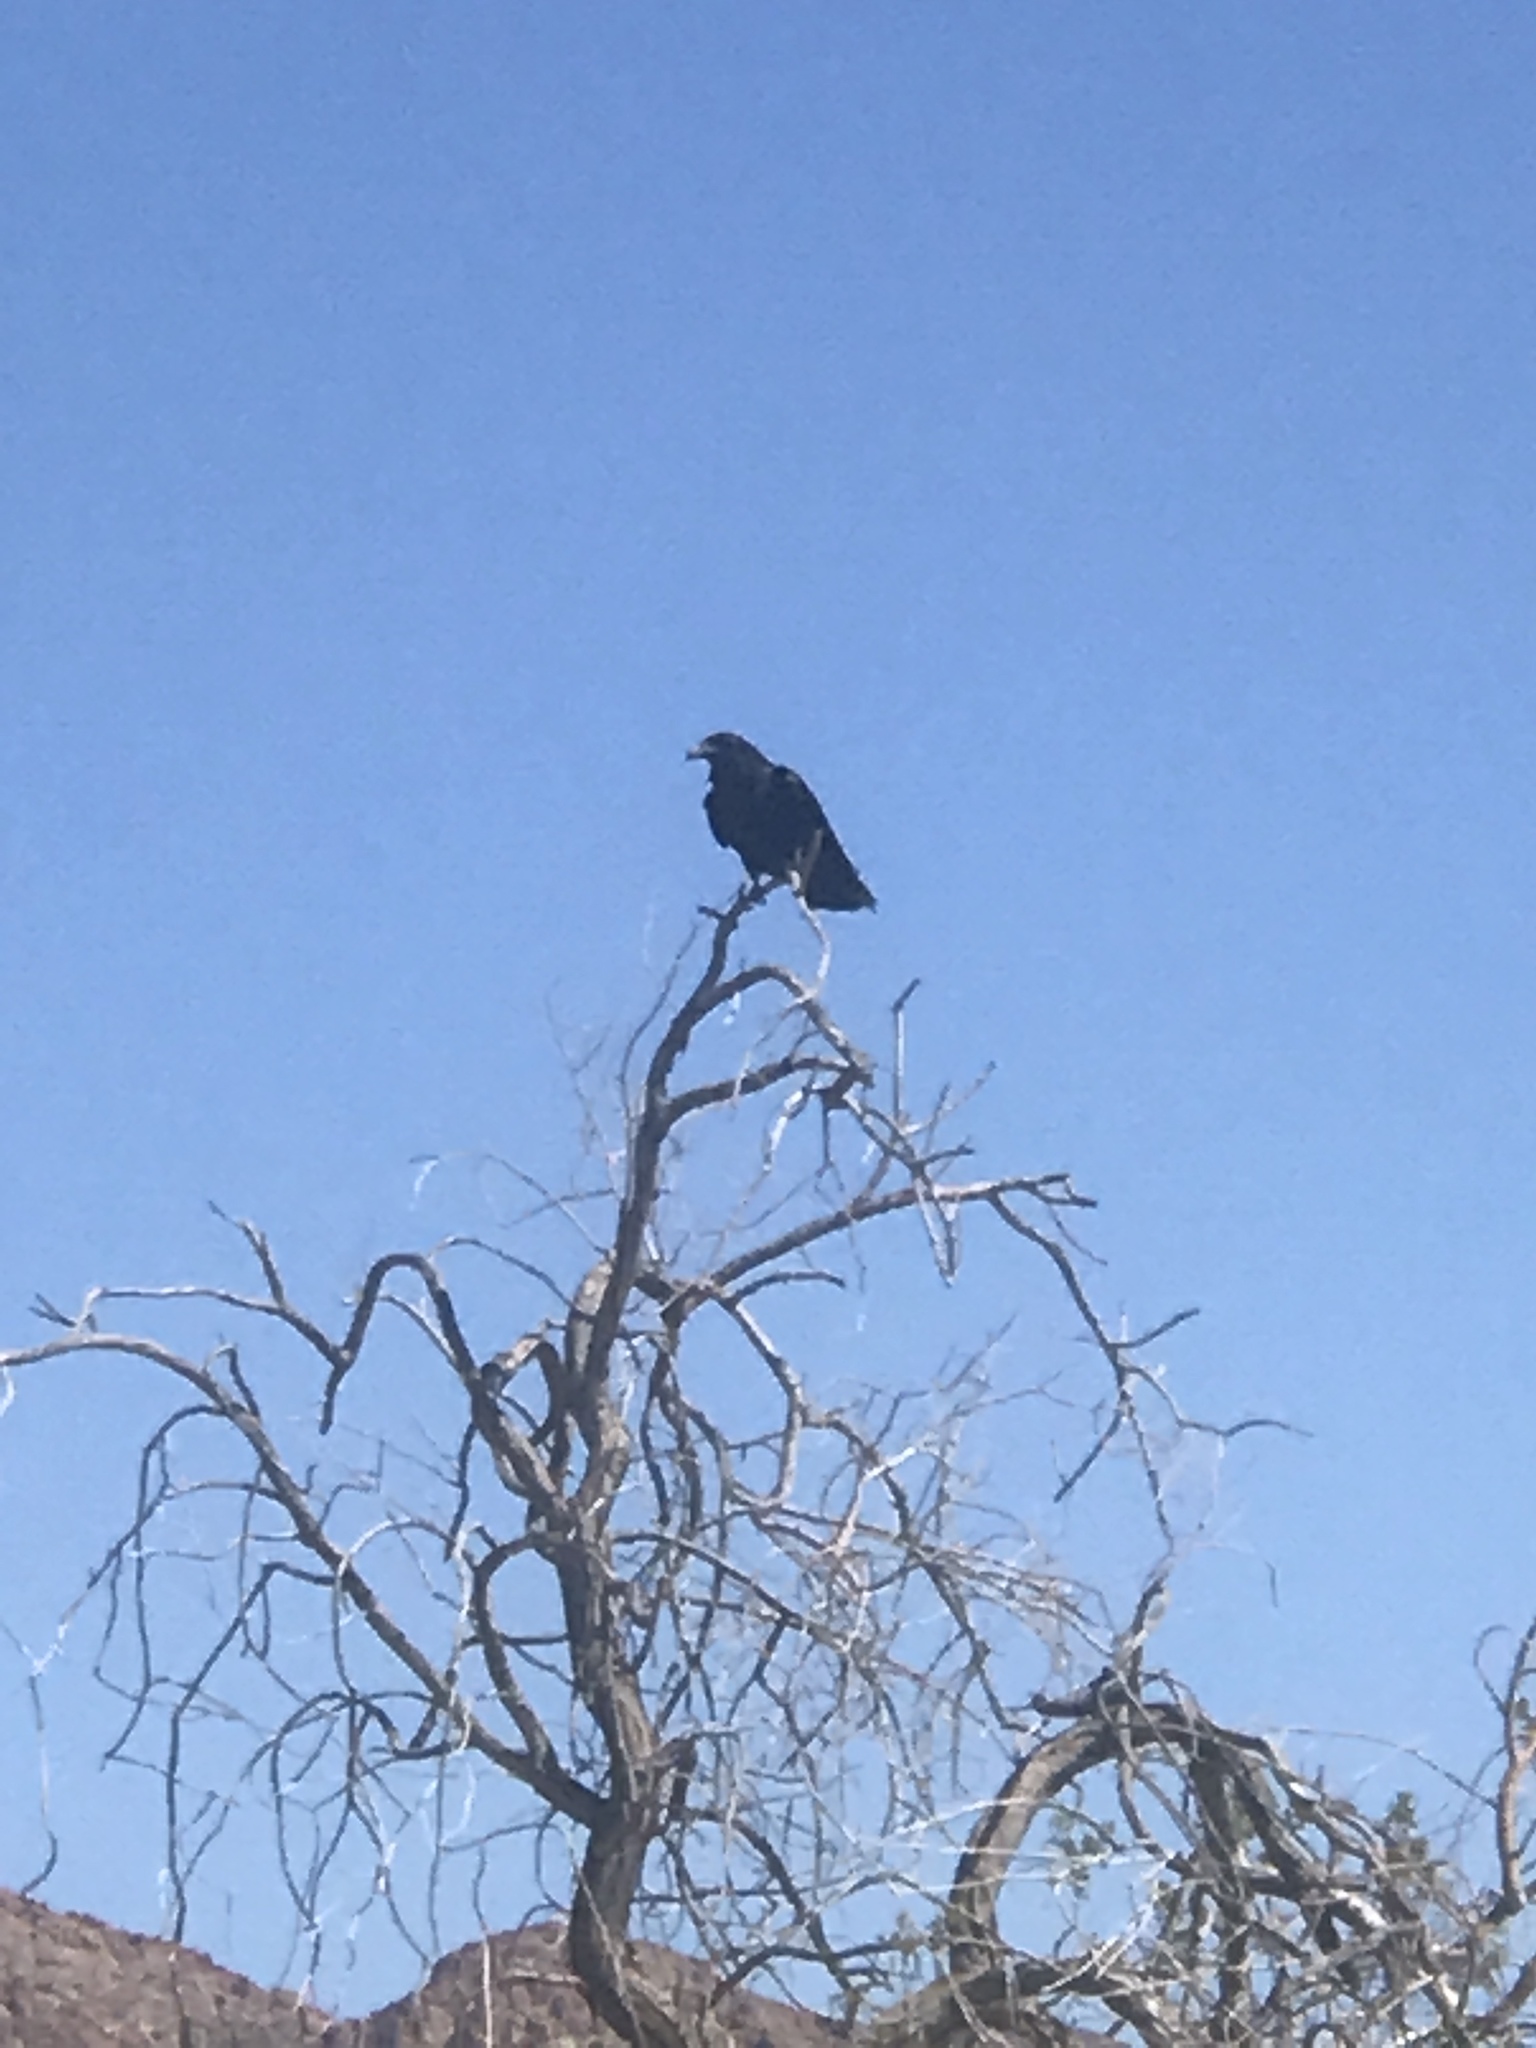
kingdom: Animalia
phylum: Chordata
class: Aves
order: Passeriformes
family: Corvidae
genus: Corvus
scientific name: Corvus corax
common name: Common raven
